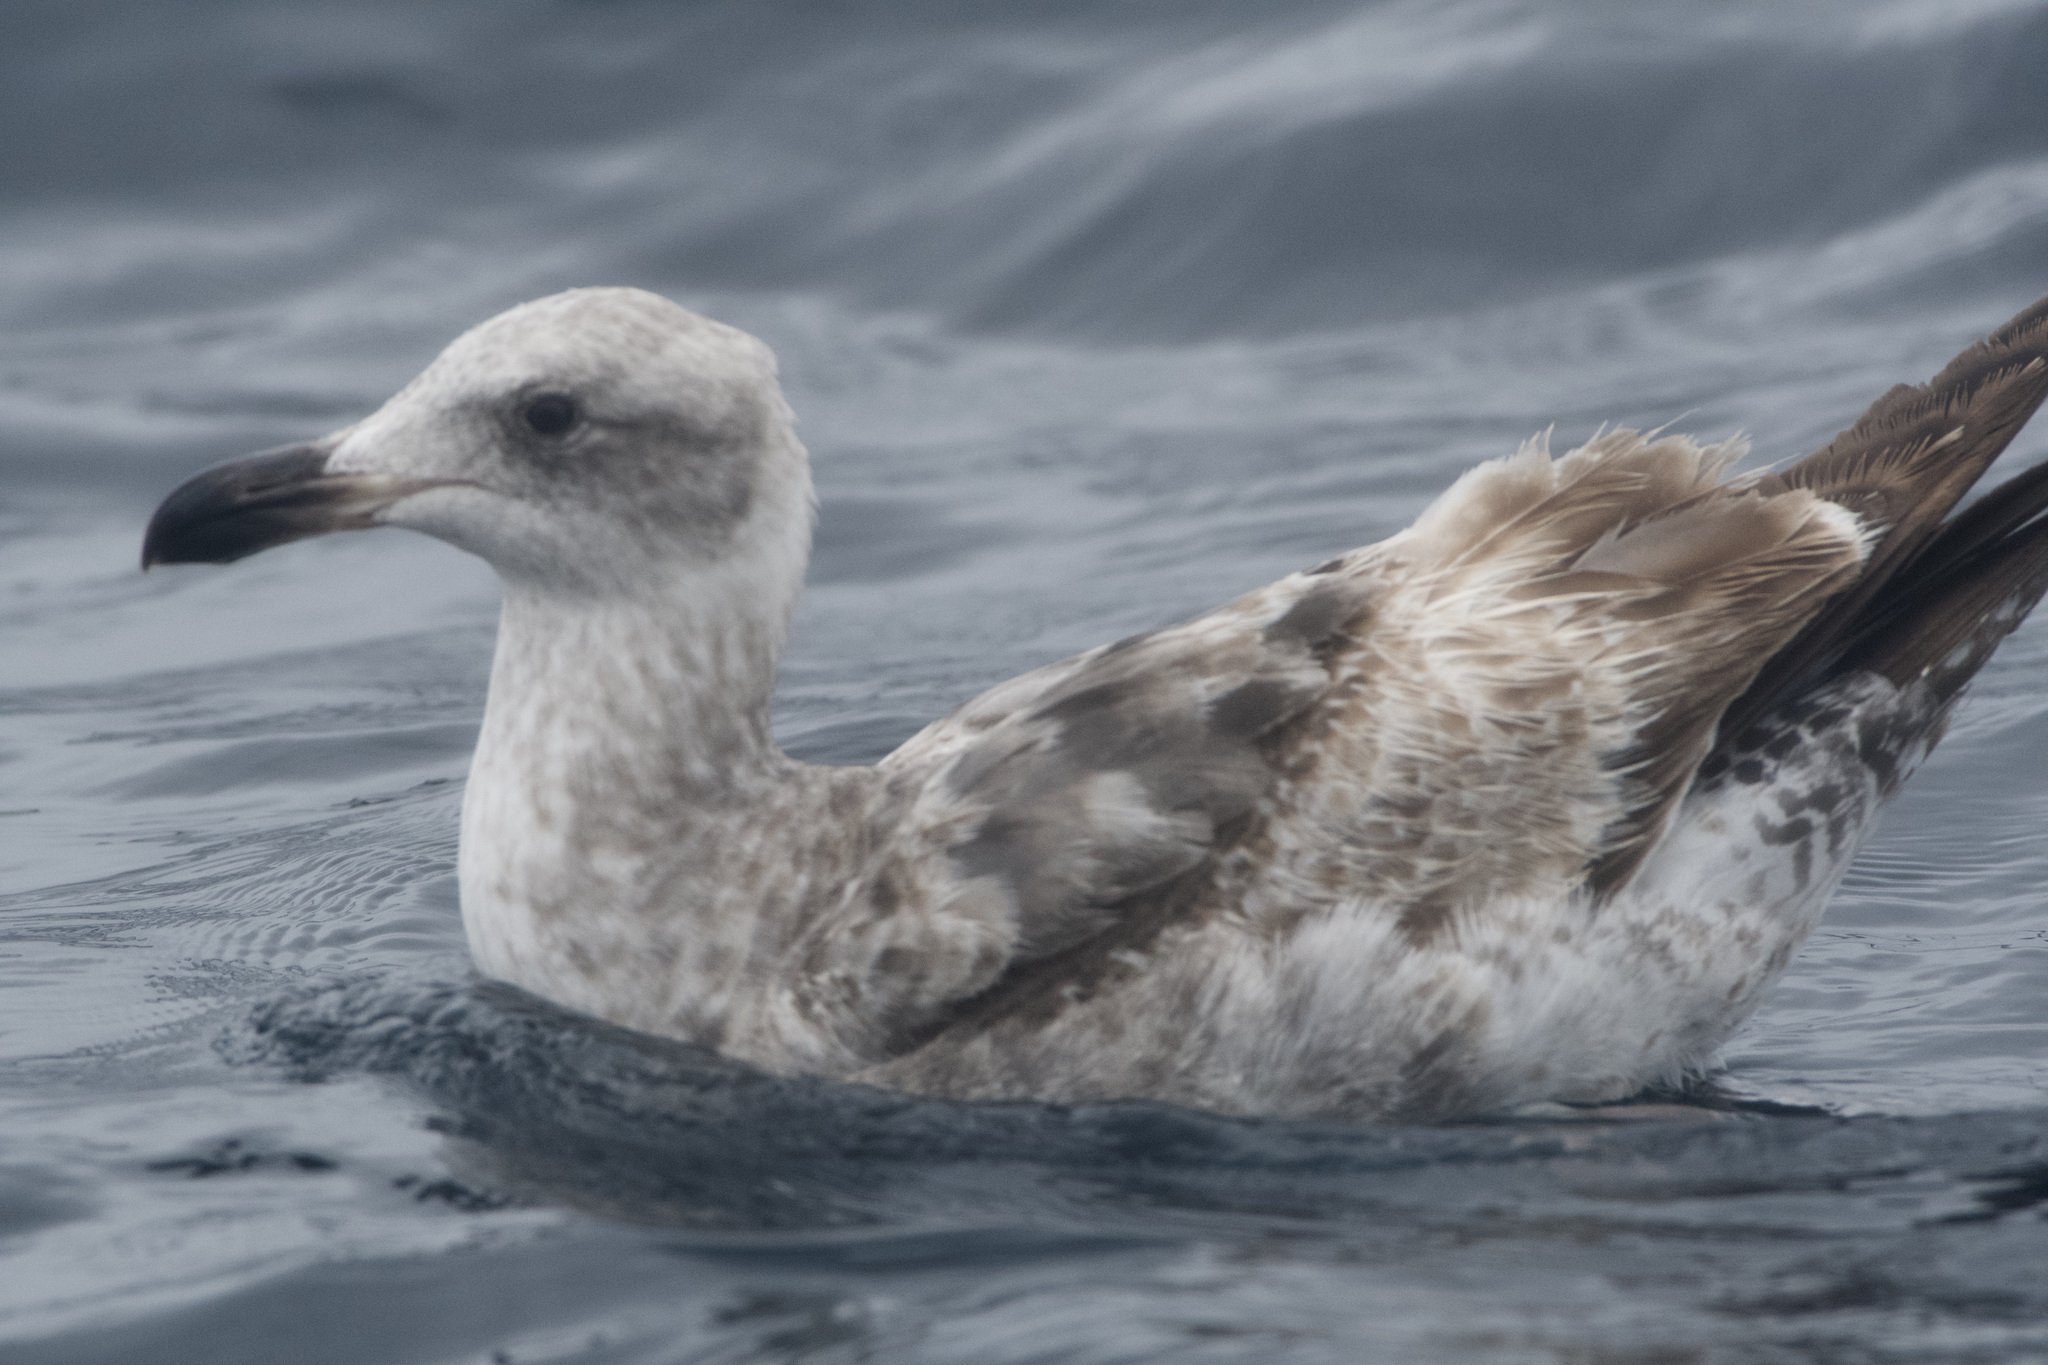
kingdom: Animalia
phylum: Chordata
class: Aves
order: Charadriiformes
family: Laridae
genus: Larus
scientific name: Larus occidentalis
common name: Western gull
